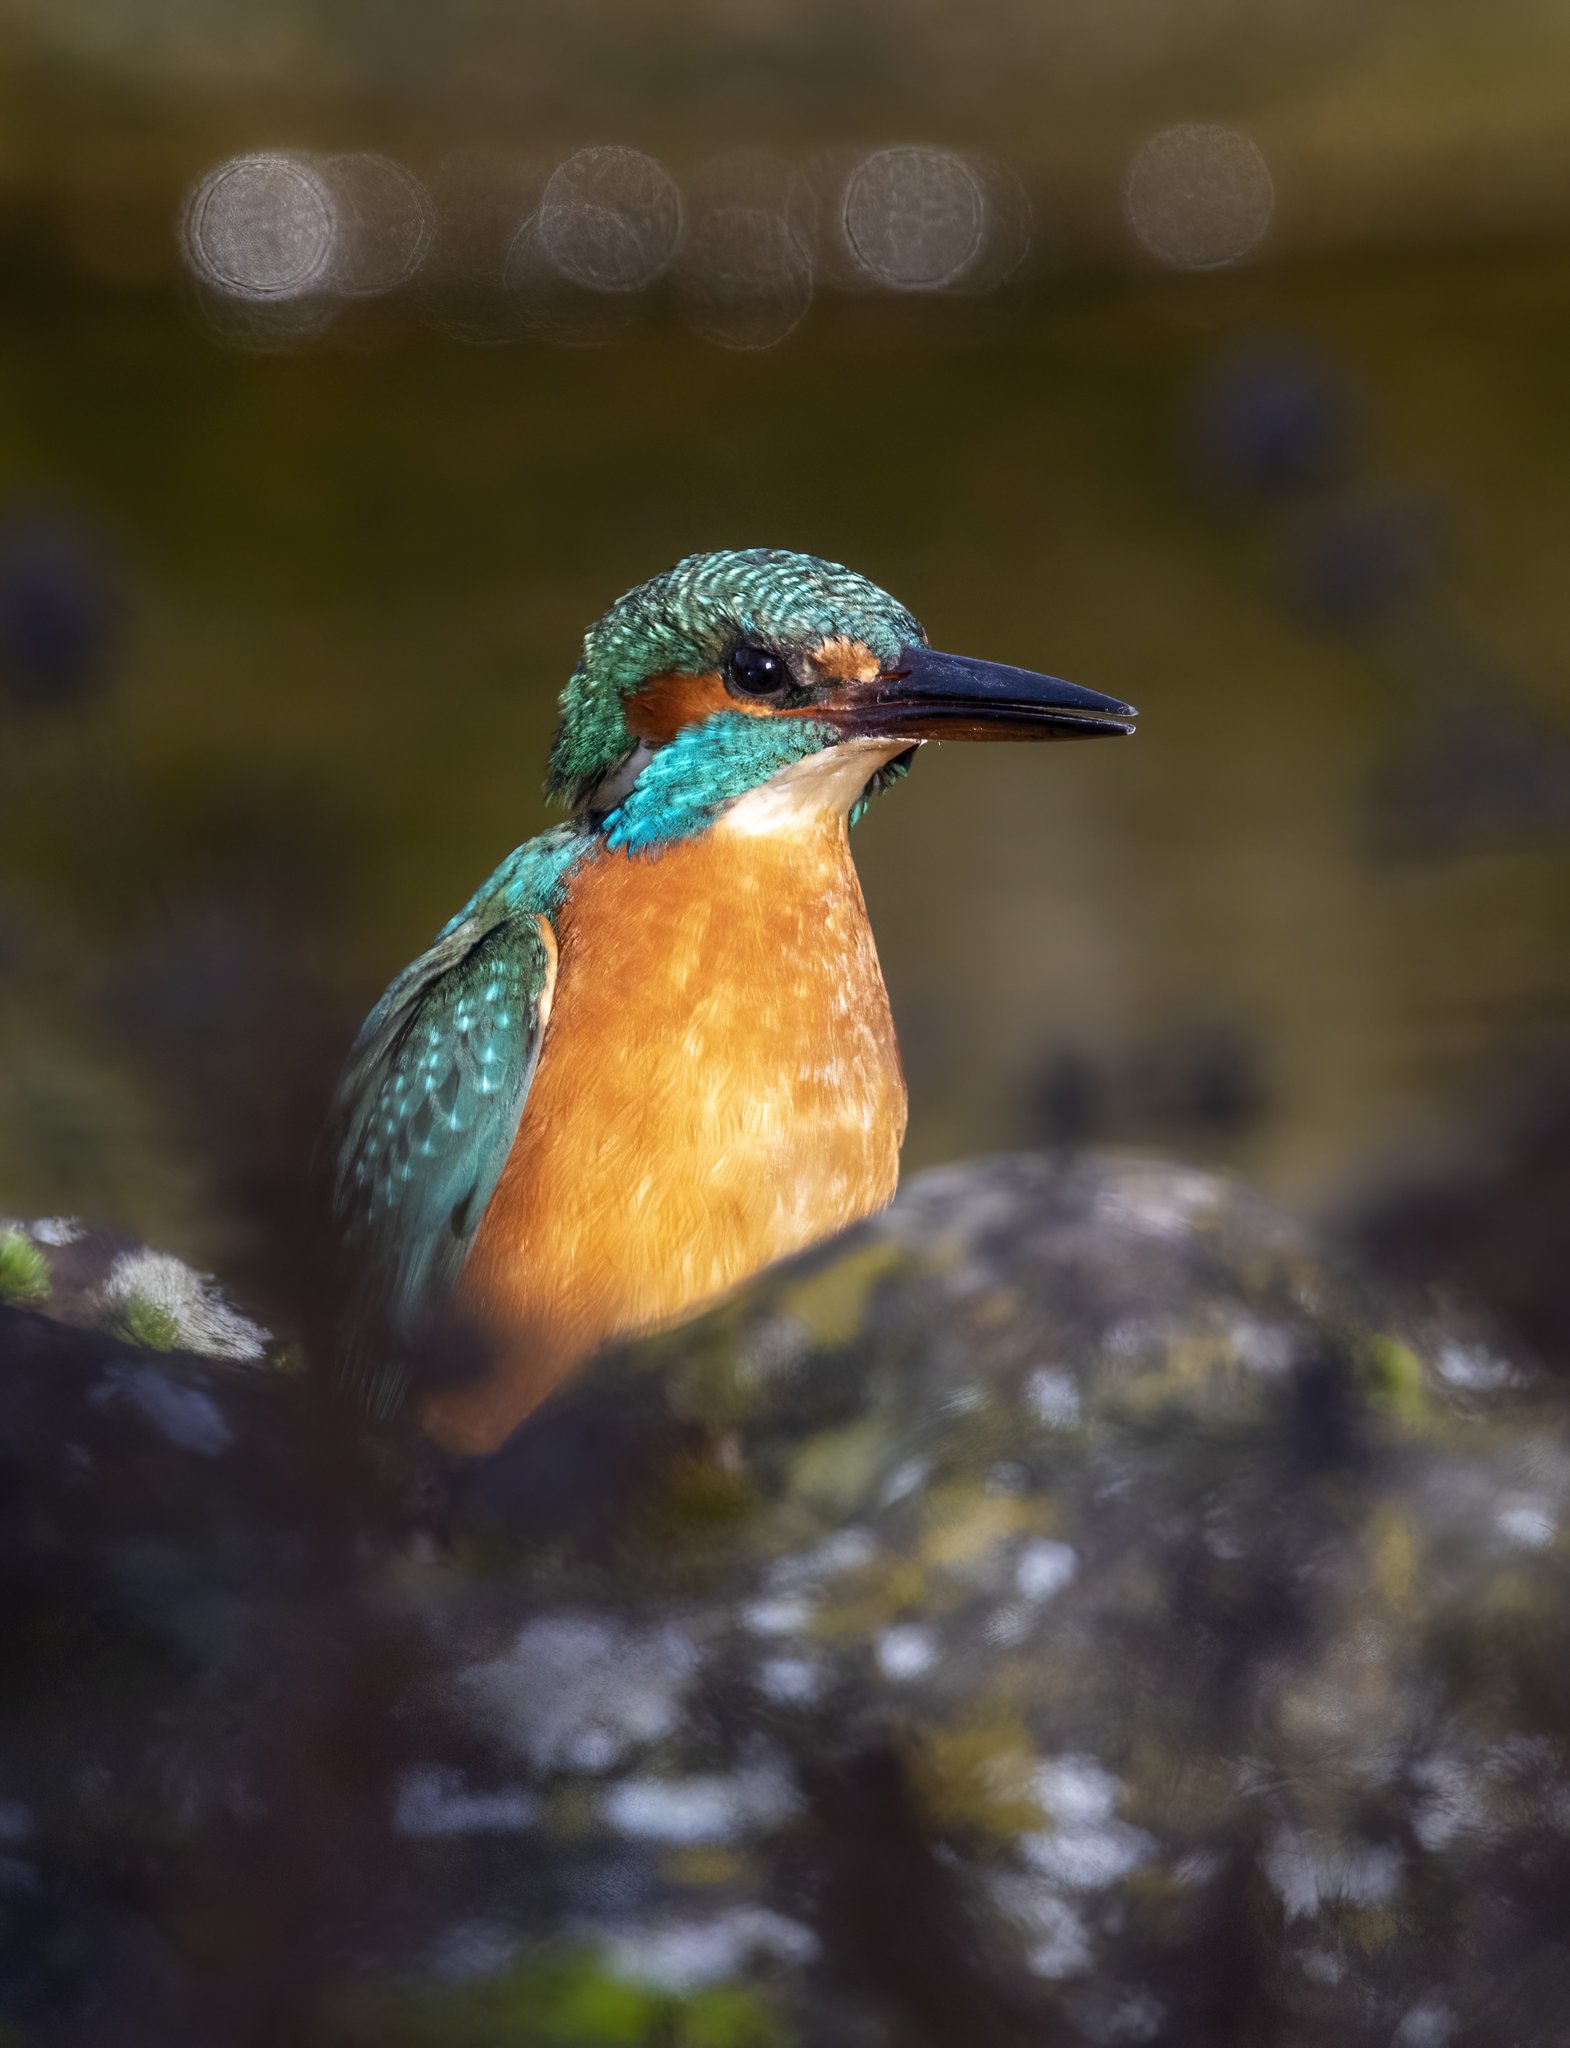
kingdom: Animalia
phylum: Chordata
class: Aves
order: Coraciiformes
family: Alcedinidae
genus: Alcedo
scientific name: Alcedo atthis
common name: Common kingfisher
